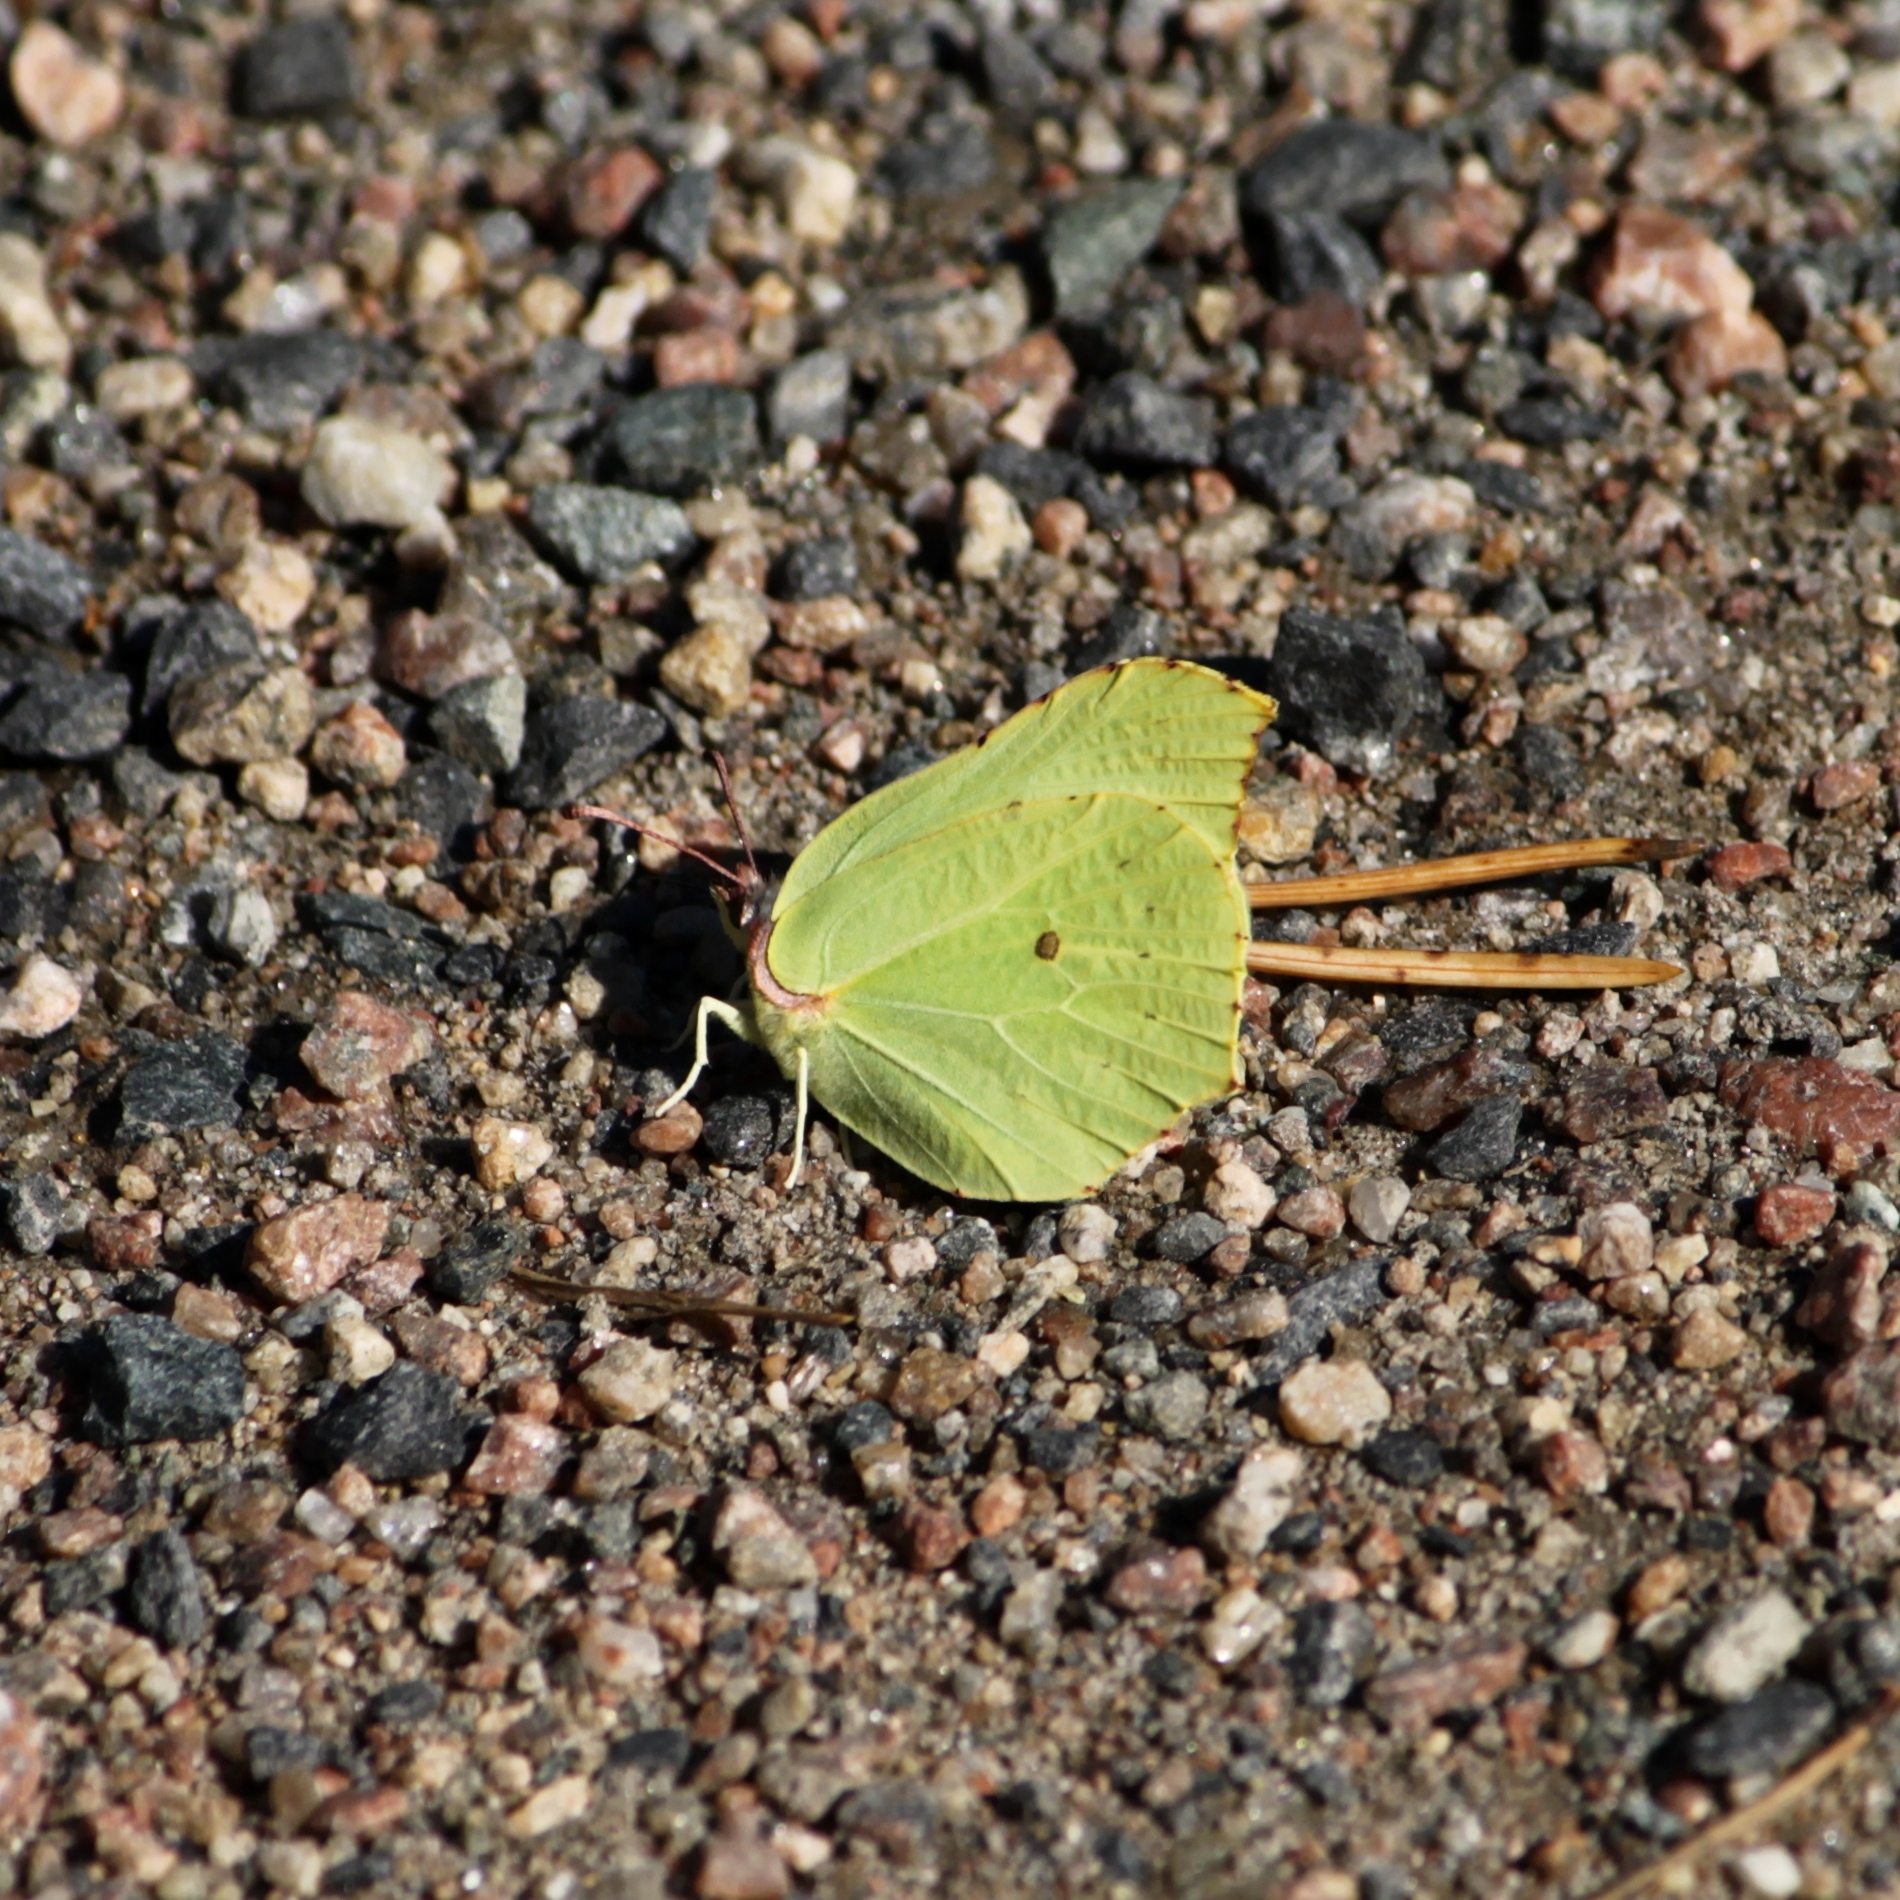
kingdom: Animalia
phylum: Arthropoda
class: Insecta
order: Lepidoptera
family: Pieridae
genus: Gonepteryx
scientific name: Gonepteryx rhamni
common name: Brimstone
